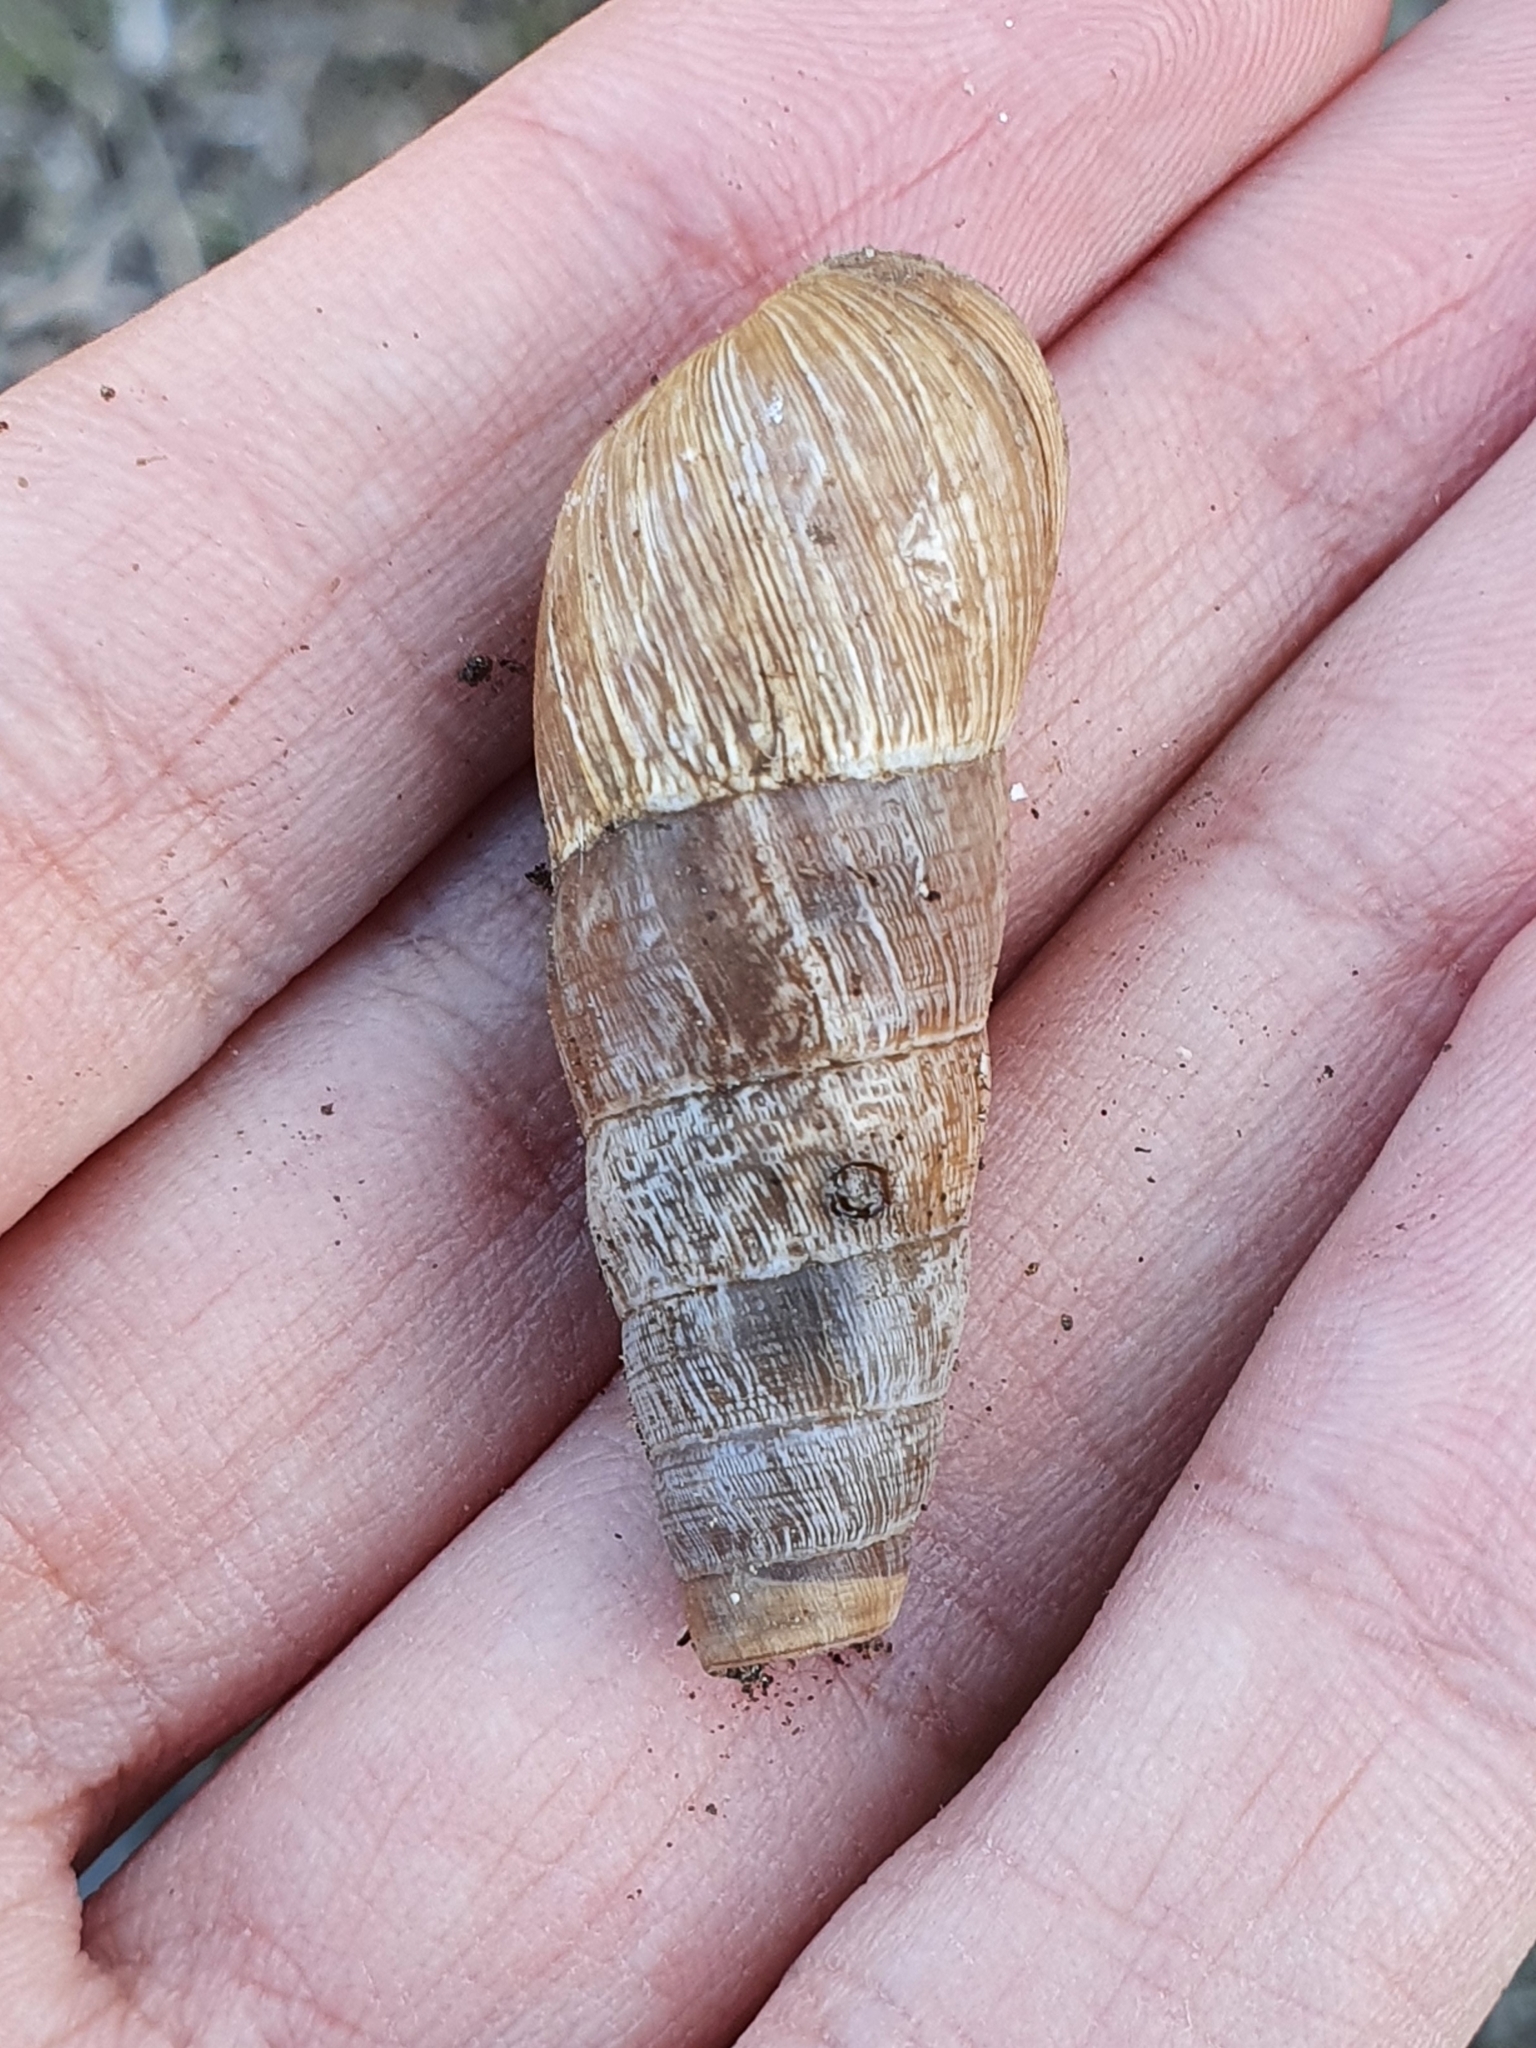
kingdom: Animalia
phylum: Mollusca
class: Gastropoda
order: Stylommatophora
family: Achatinidae
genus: Rumina
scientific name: Rumina decollata
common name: Decollate snail
